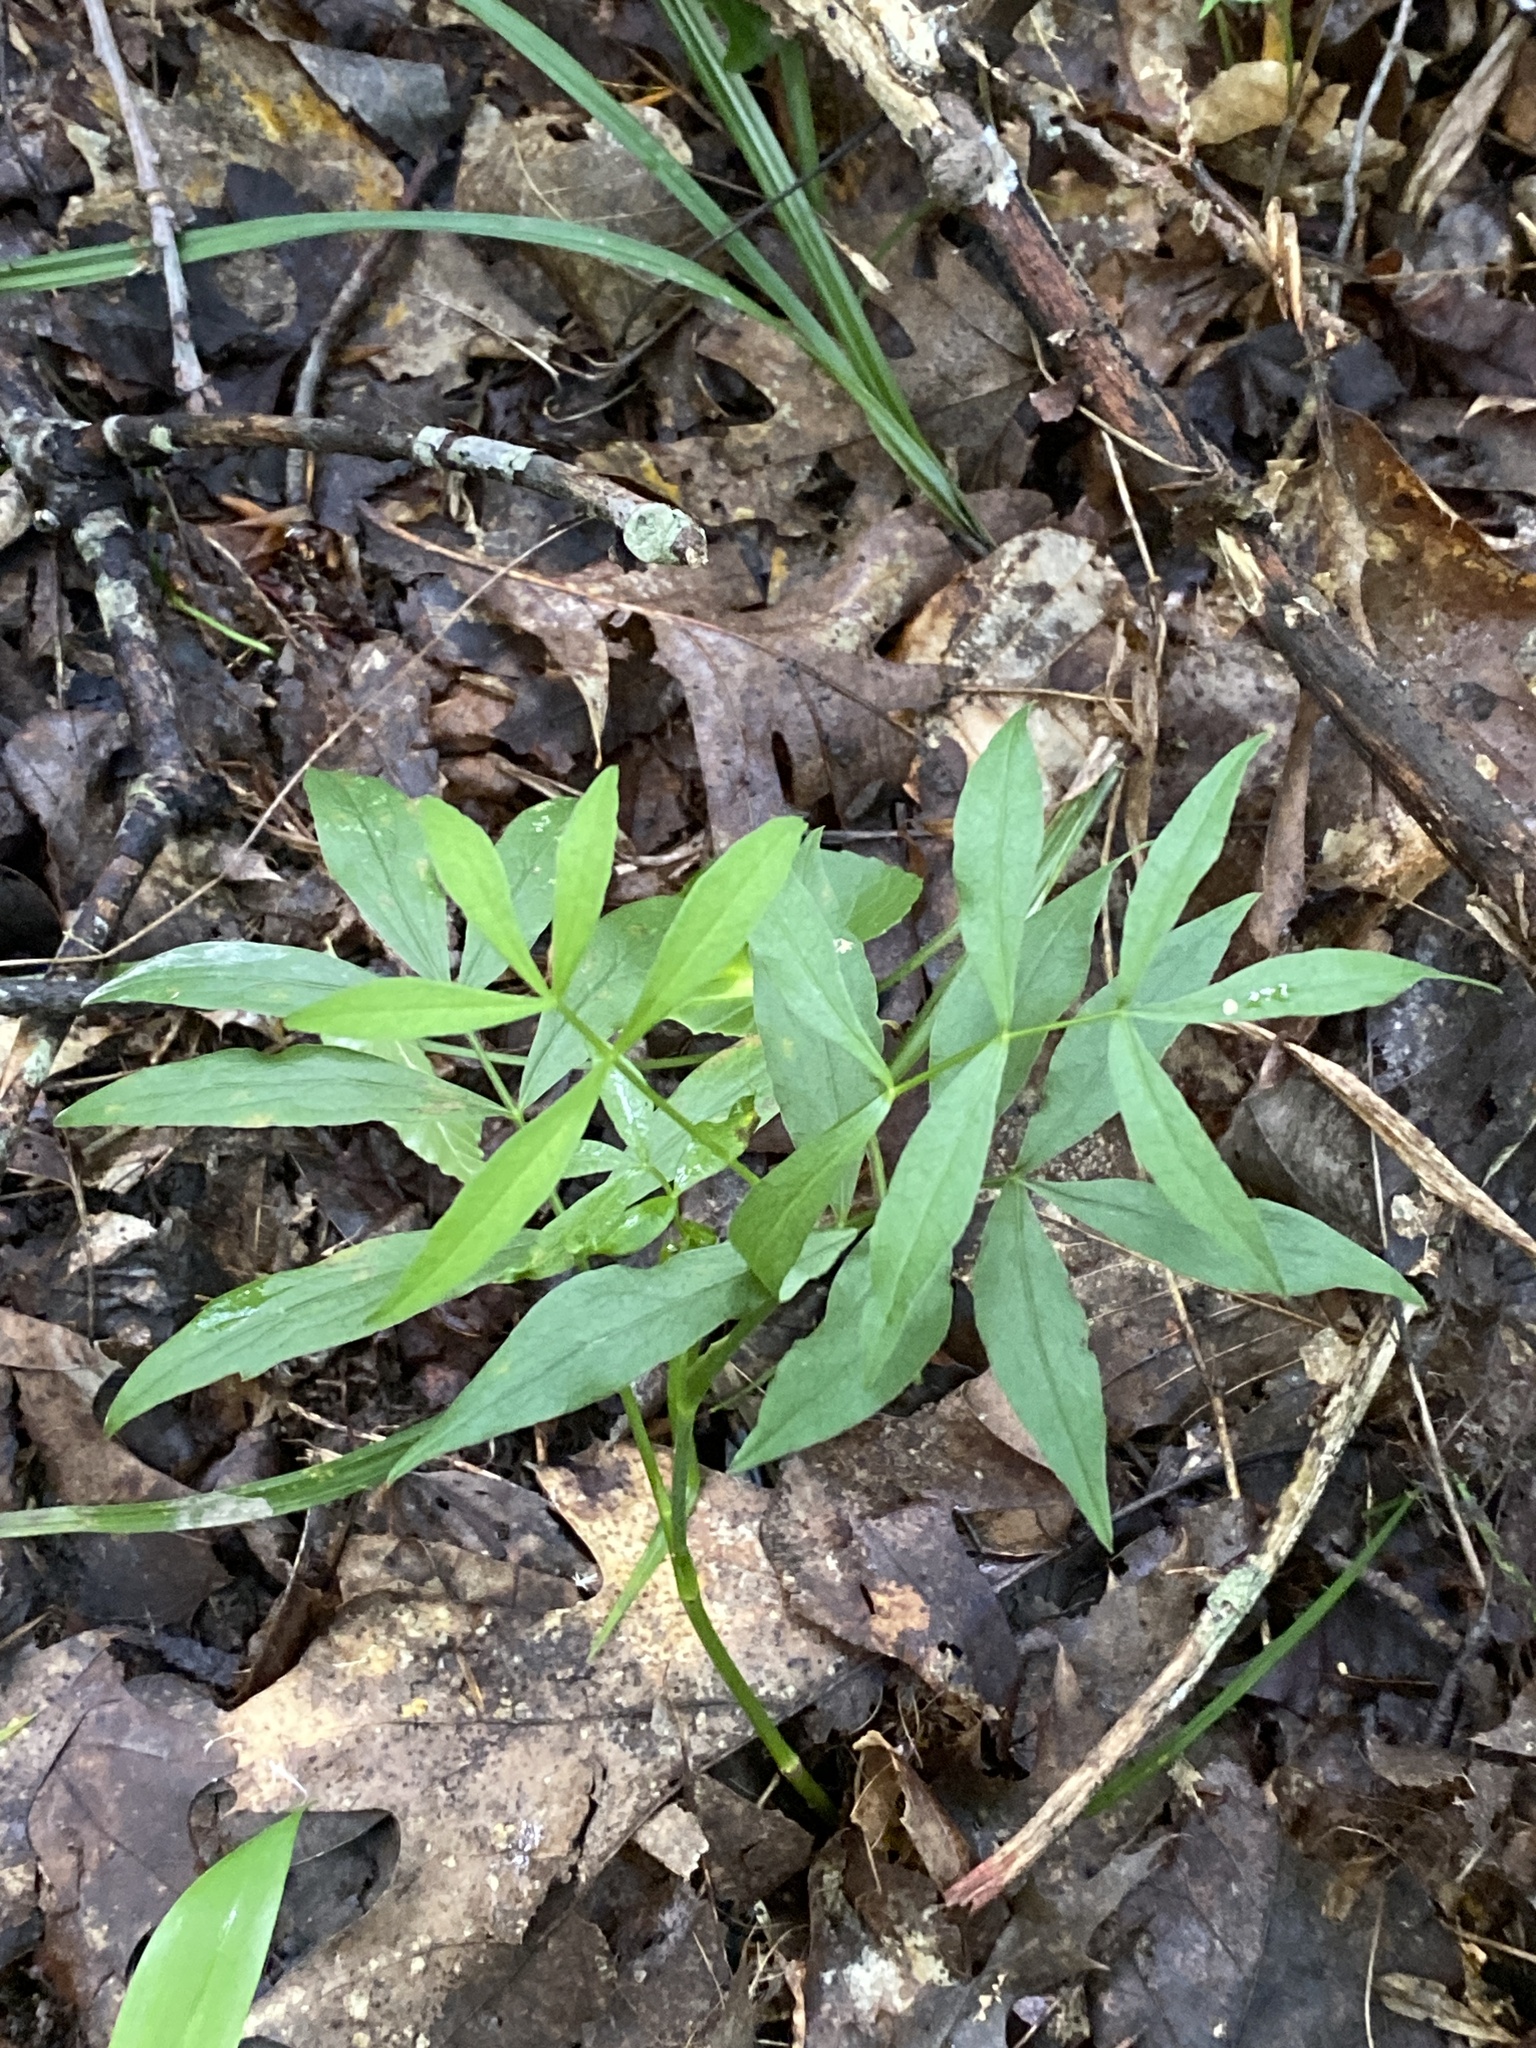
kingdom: Plantae
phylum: Tracheophyta
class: Magnoliopsida
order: Apiales
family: Apiaceae
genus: Oxypolis
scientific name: Oxypolis rigidior
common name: Cowbane
